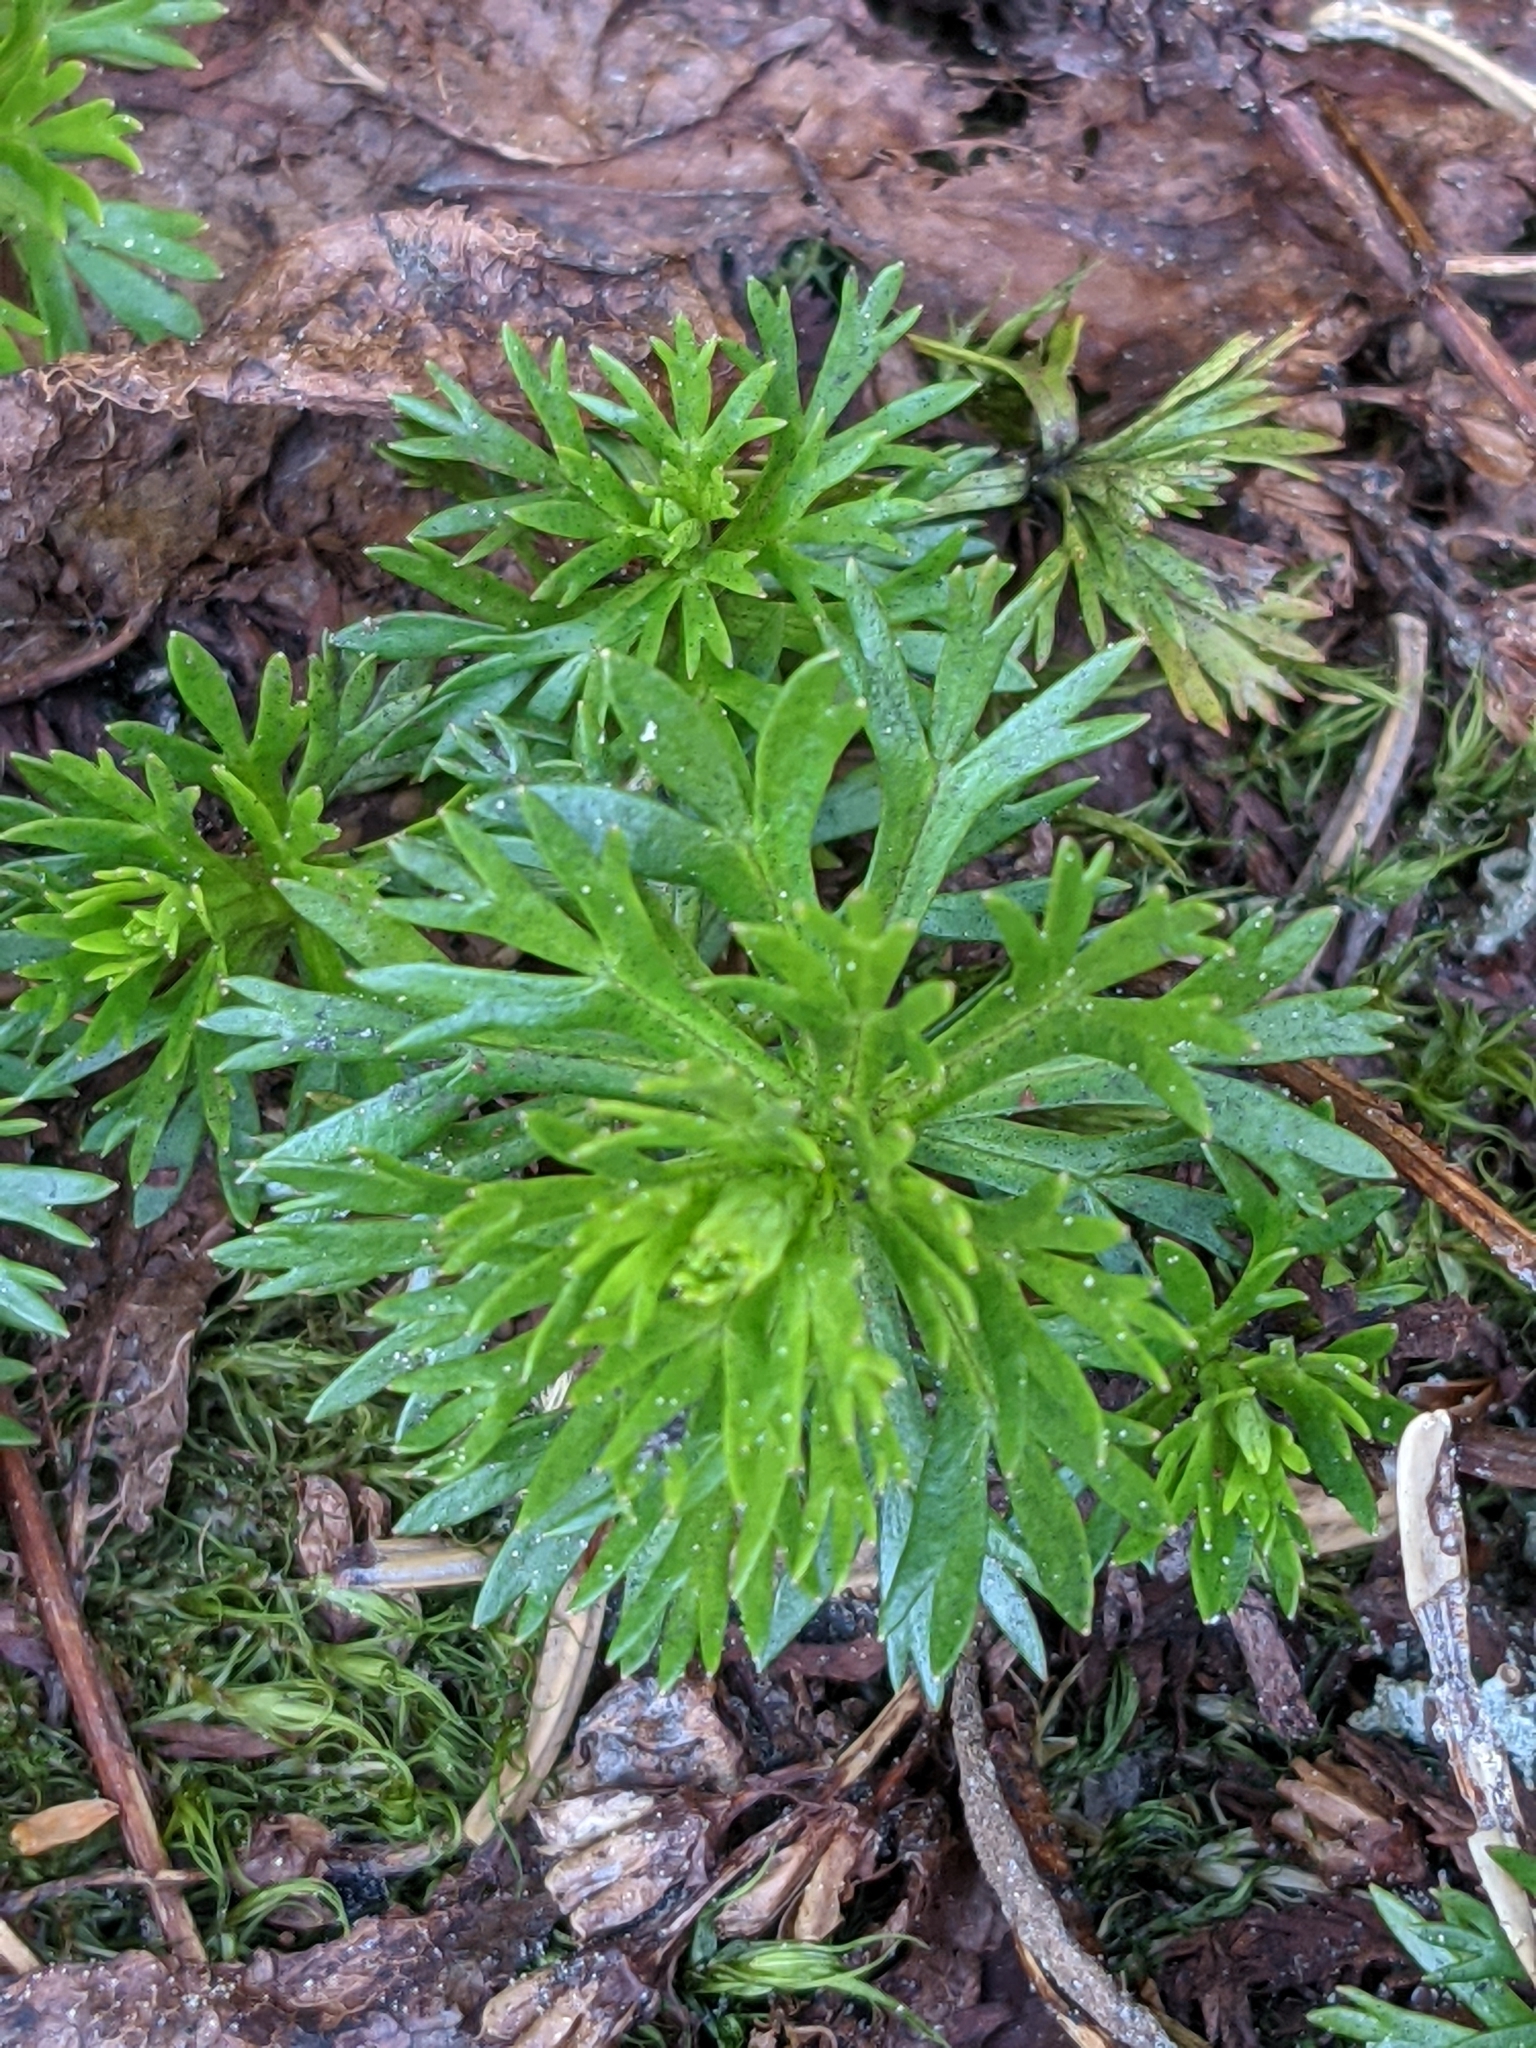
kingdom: Plantae
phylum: Tracheophyta
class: Magnoliopsida
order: Rosales
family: Rosaceae
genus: Luetkea
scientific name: Luetkea pectinata
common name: Partridgefoot
